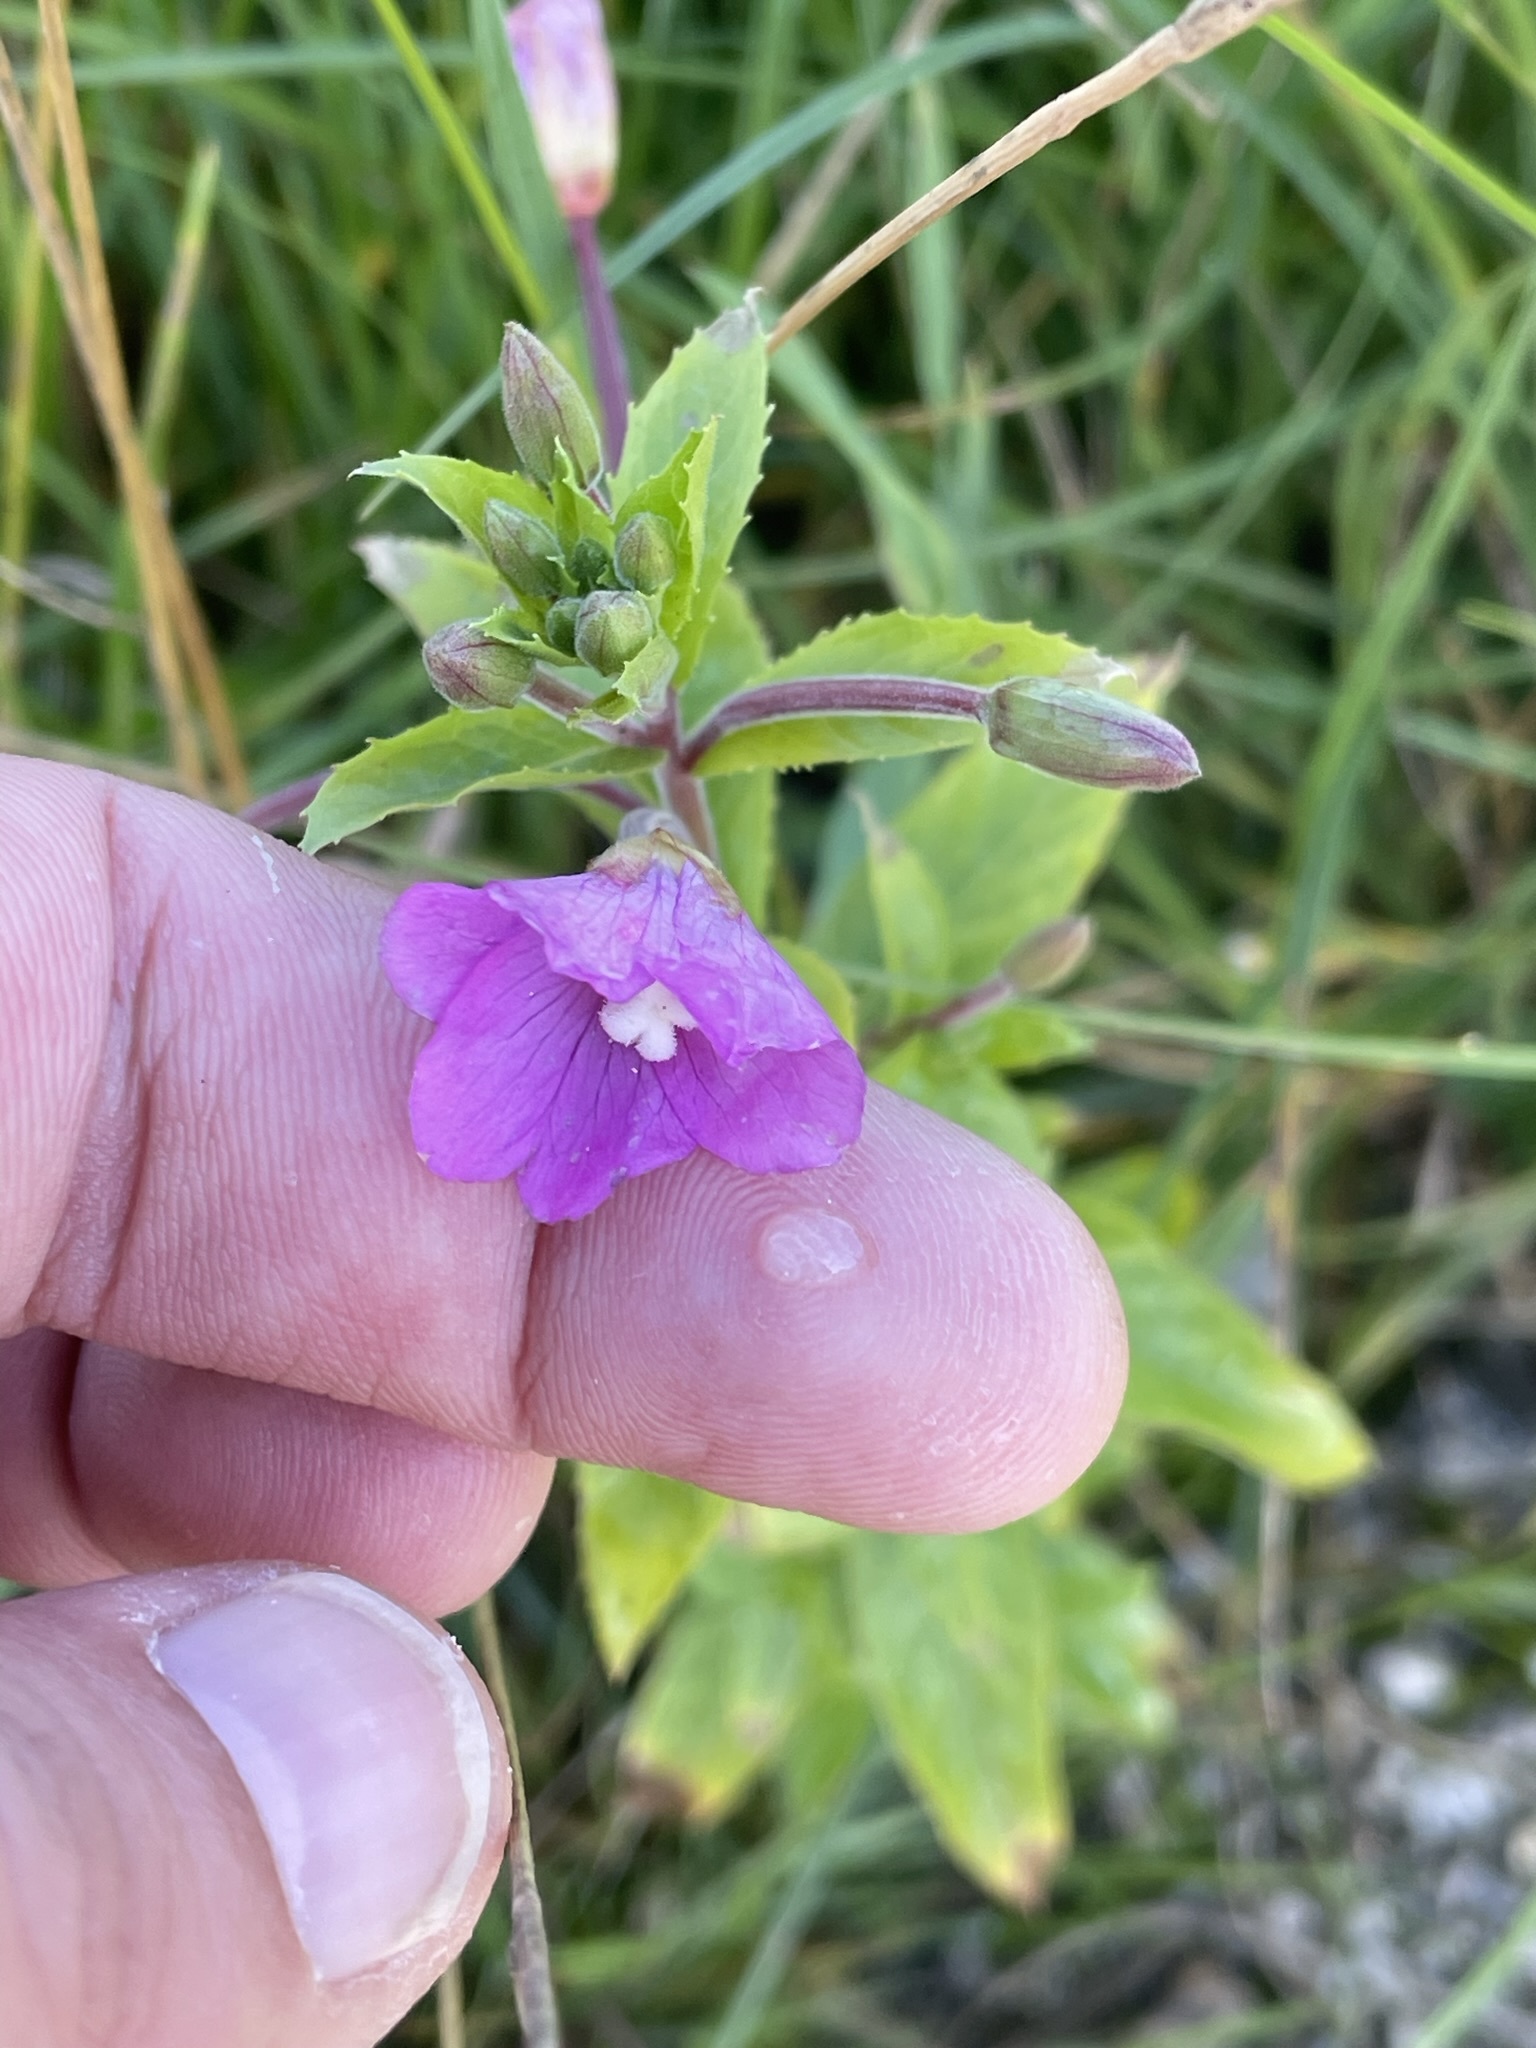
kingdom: Plantae
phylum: Tracheophyta
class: Magnoliopsida
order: Myrtales
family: Onagraceae
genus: Epilobium
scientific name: Epilobium hirsutum
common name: Great willowherb
